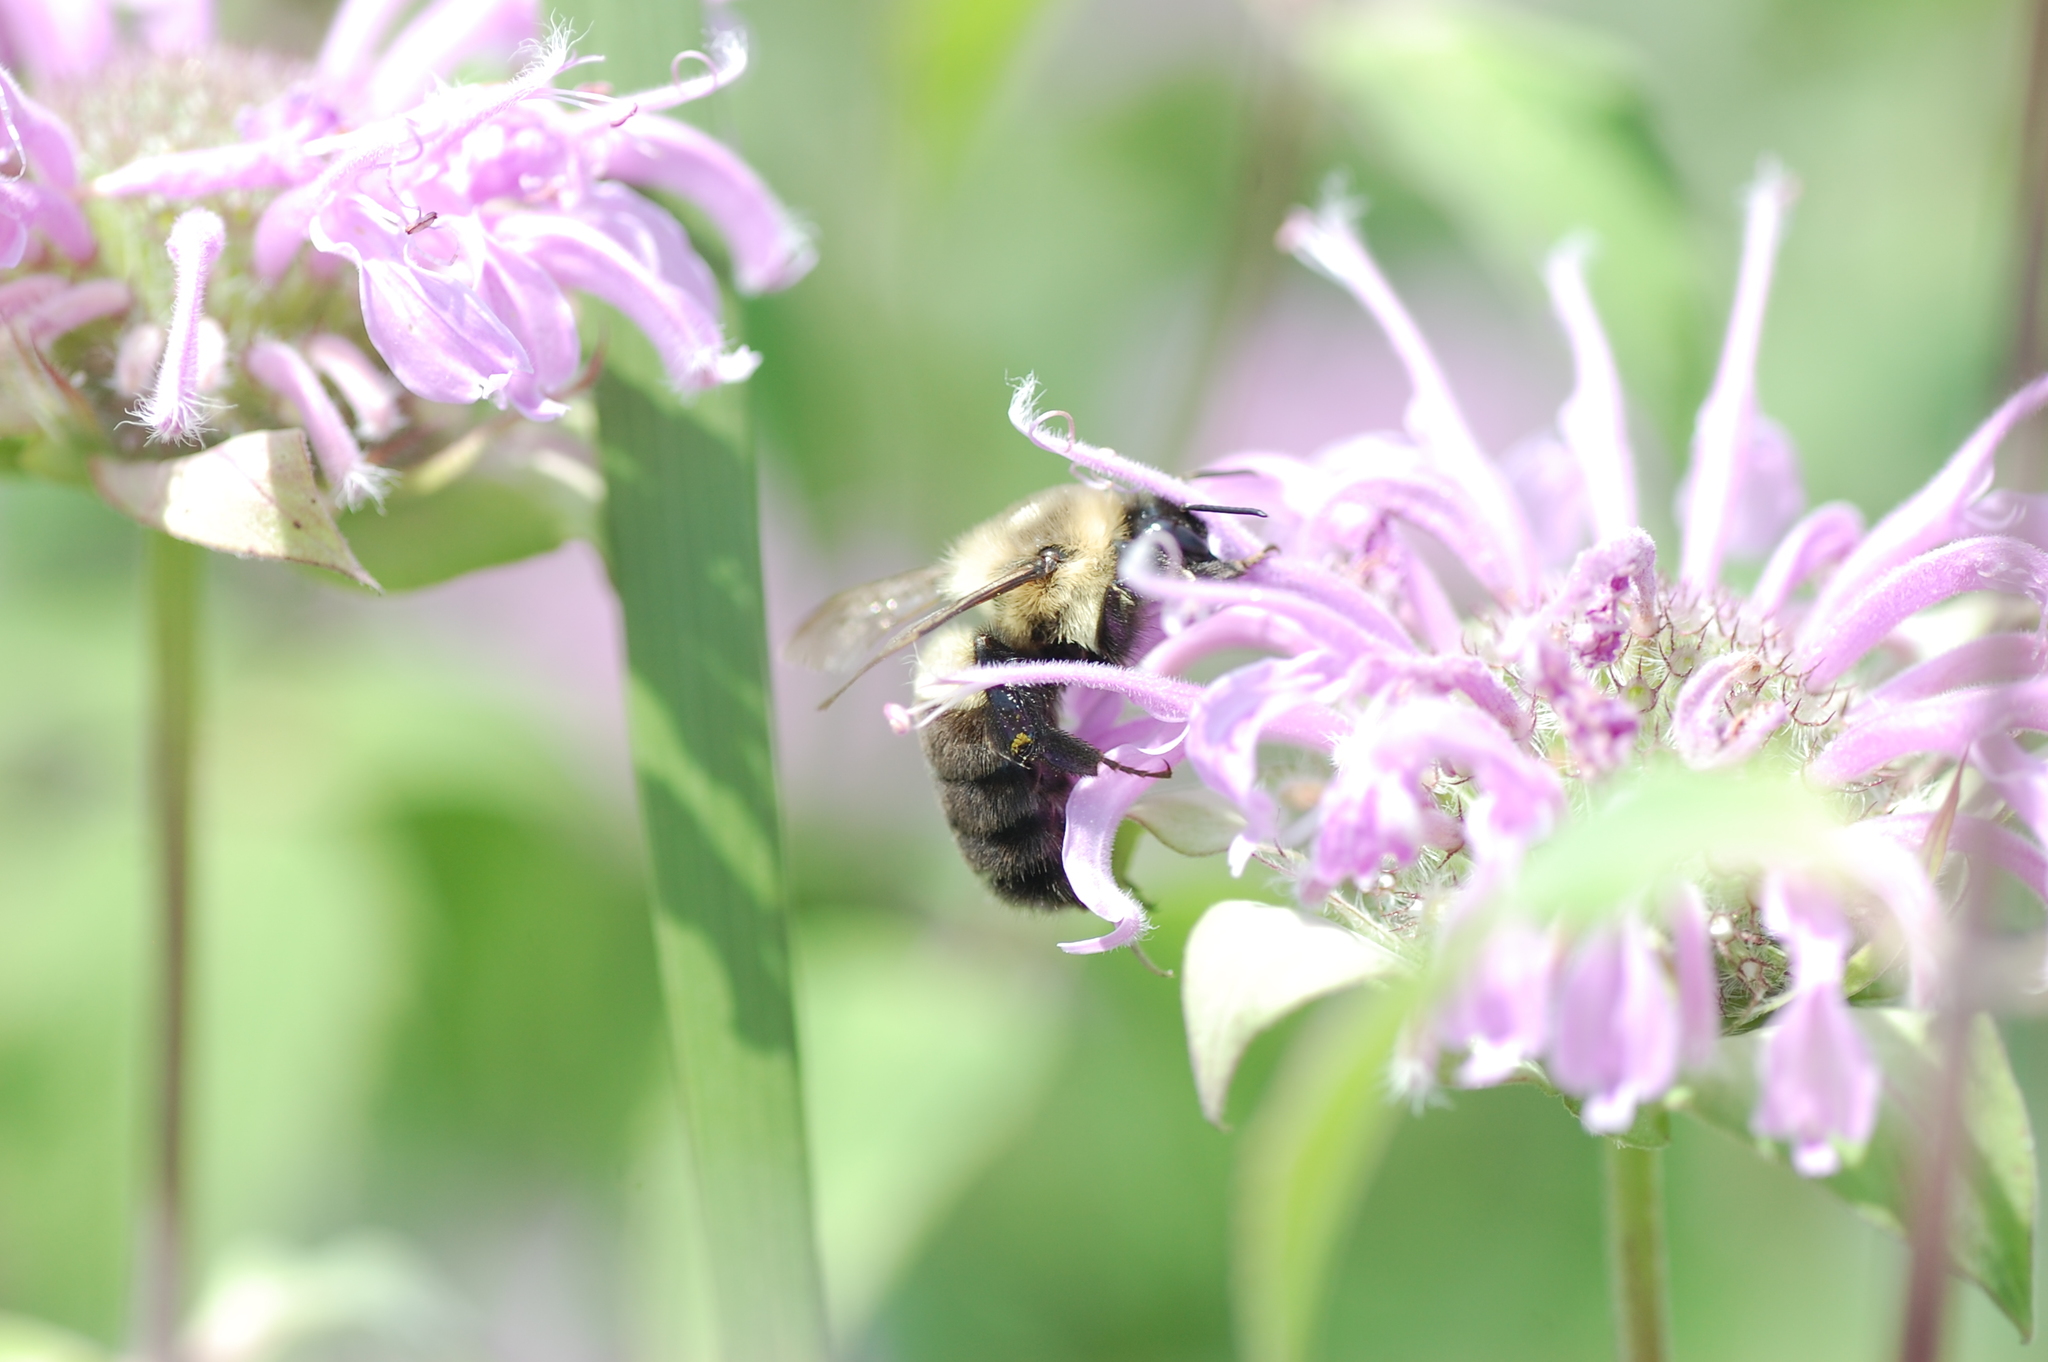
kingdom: Animalia
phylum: Arthropoda
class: Insecta
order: Hymenoptera
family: Apidae
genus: Bombus
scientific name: Bombus impatiens
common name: Common eastern bumble bee
